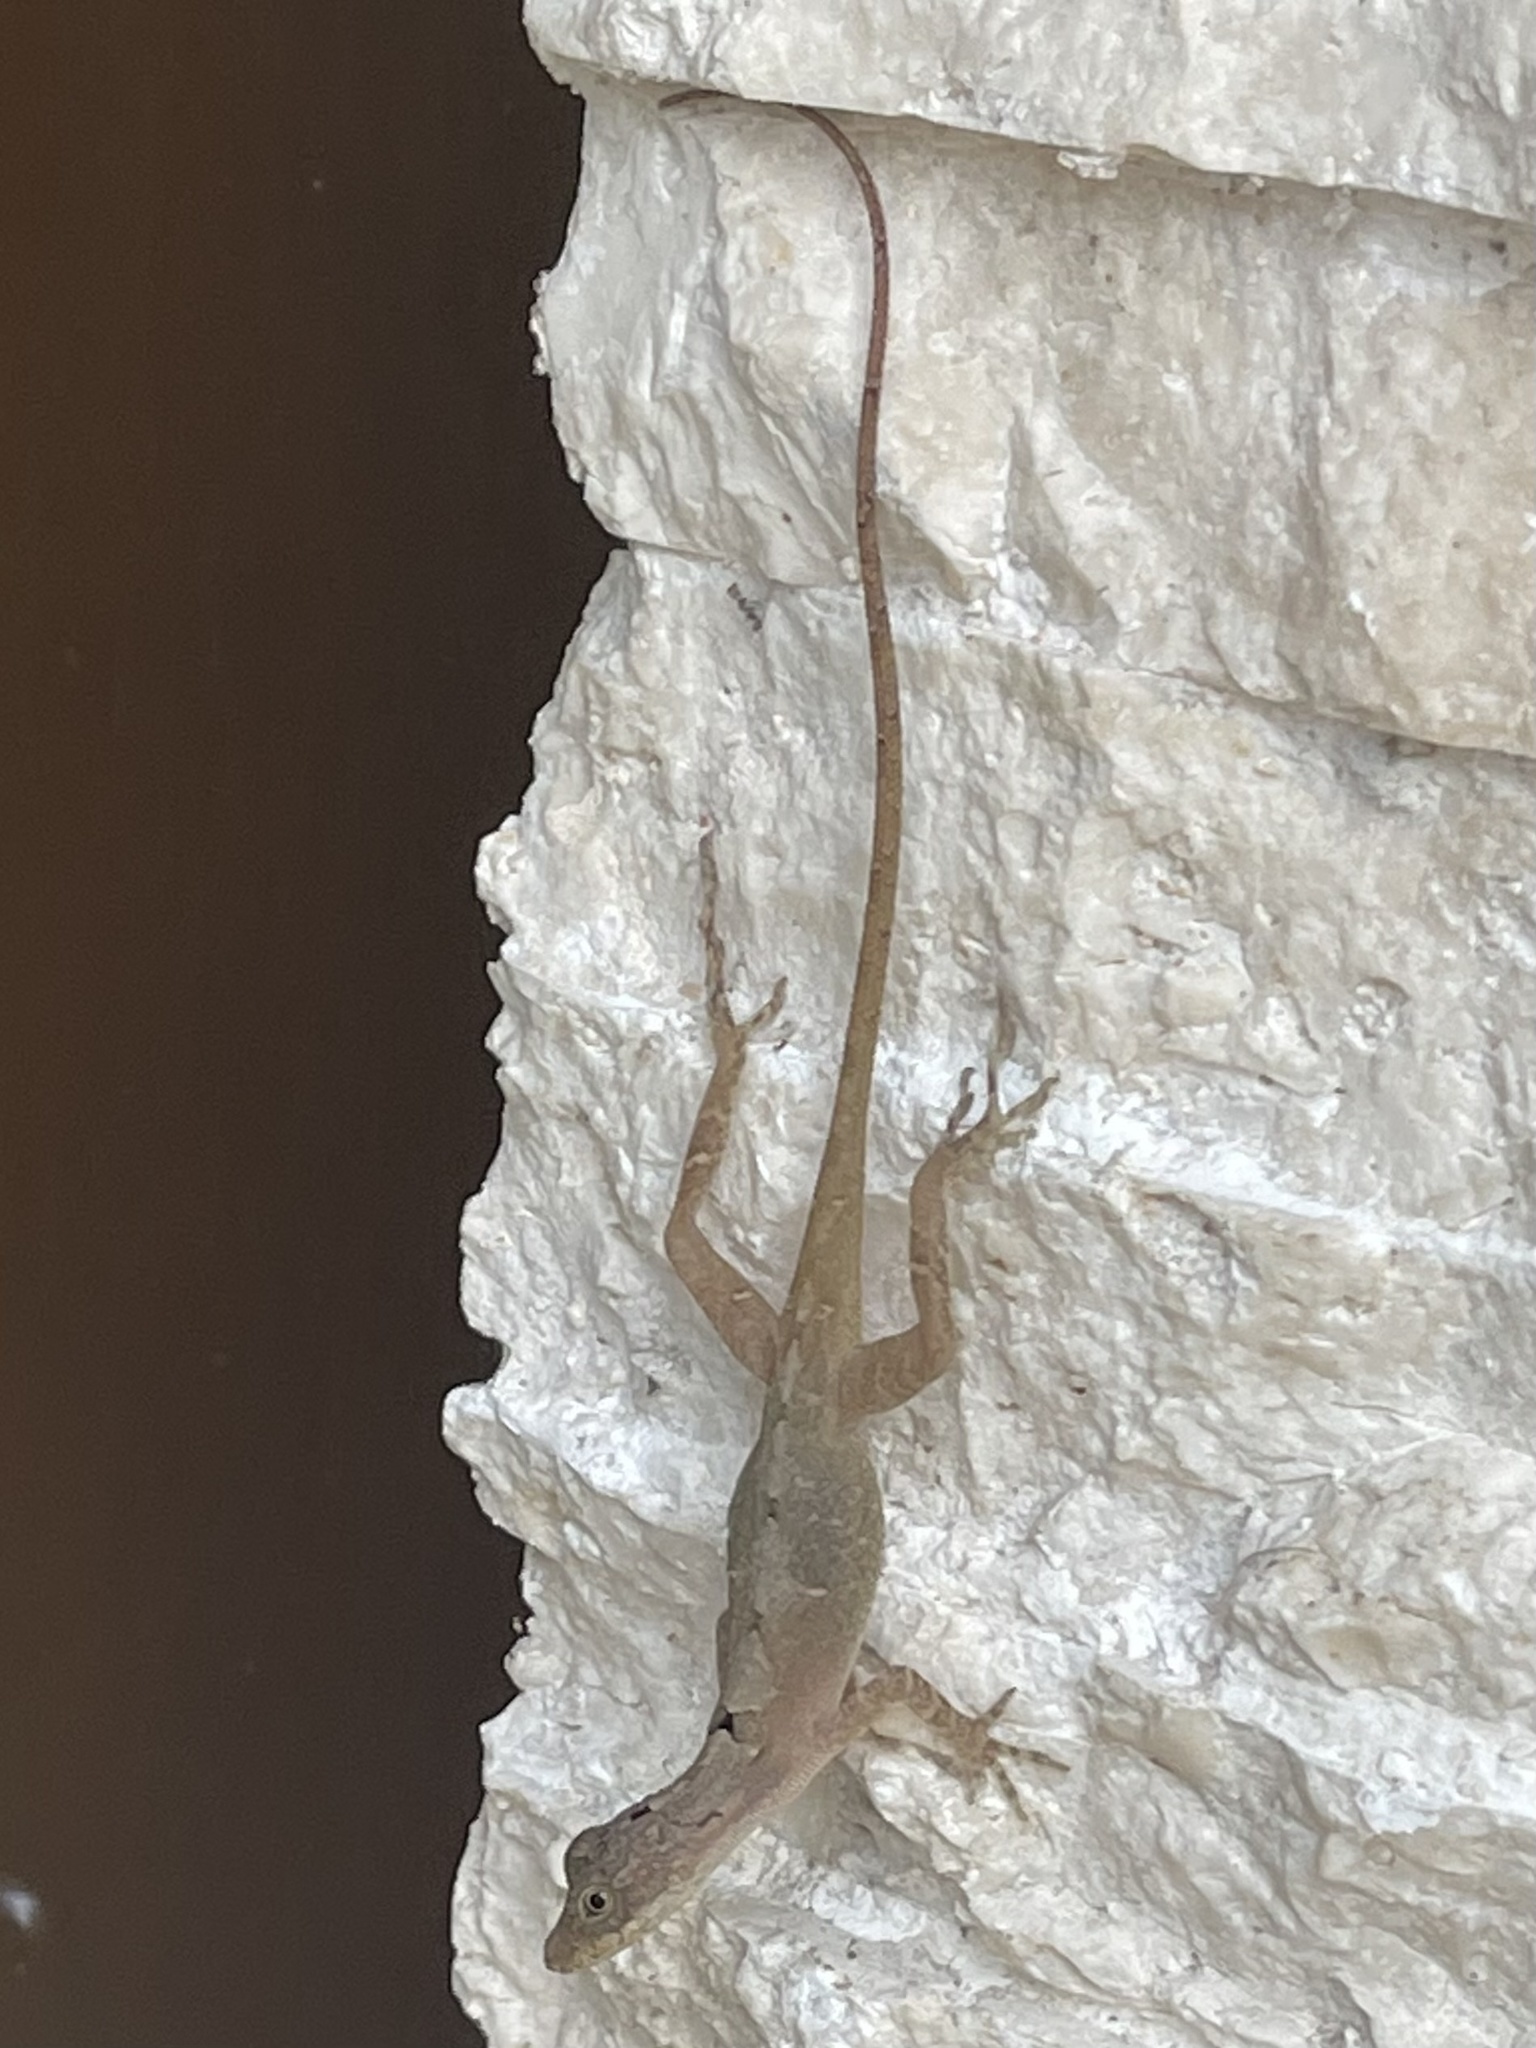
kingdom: Animalia
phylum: Chordata
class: Squamata
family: Dactyloidae
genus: Anolis
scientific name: Anolis rodriguezii
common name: Middle american smooth anole
